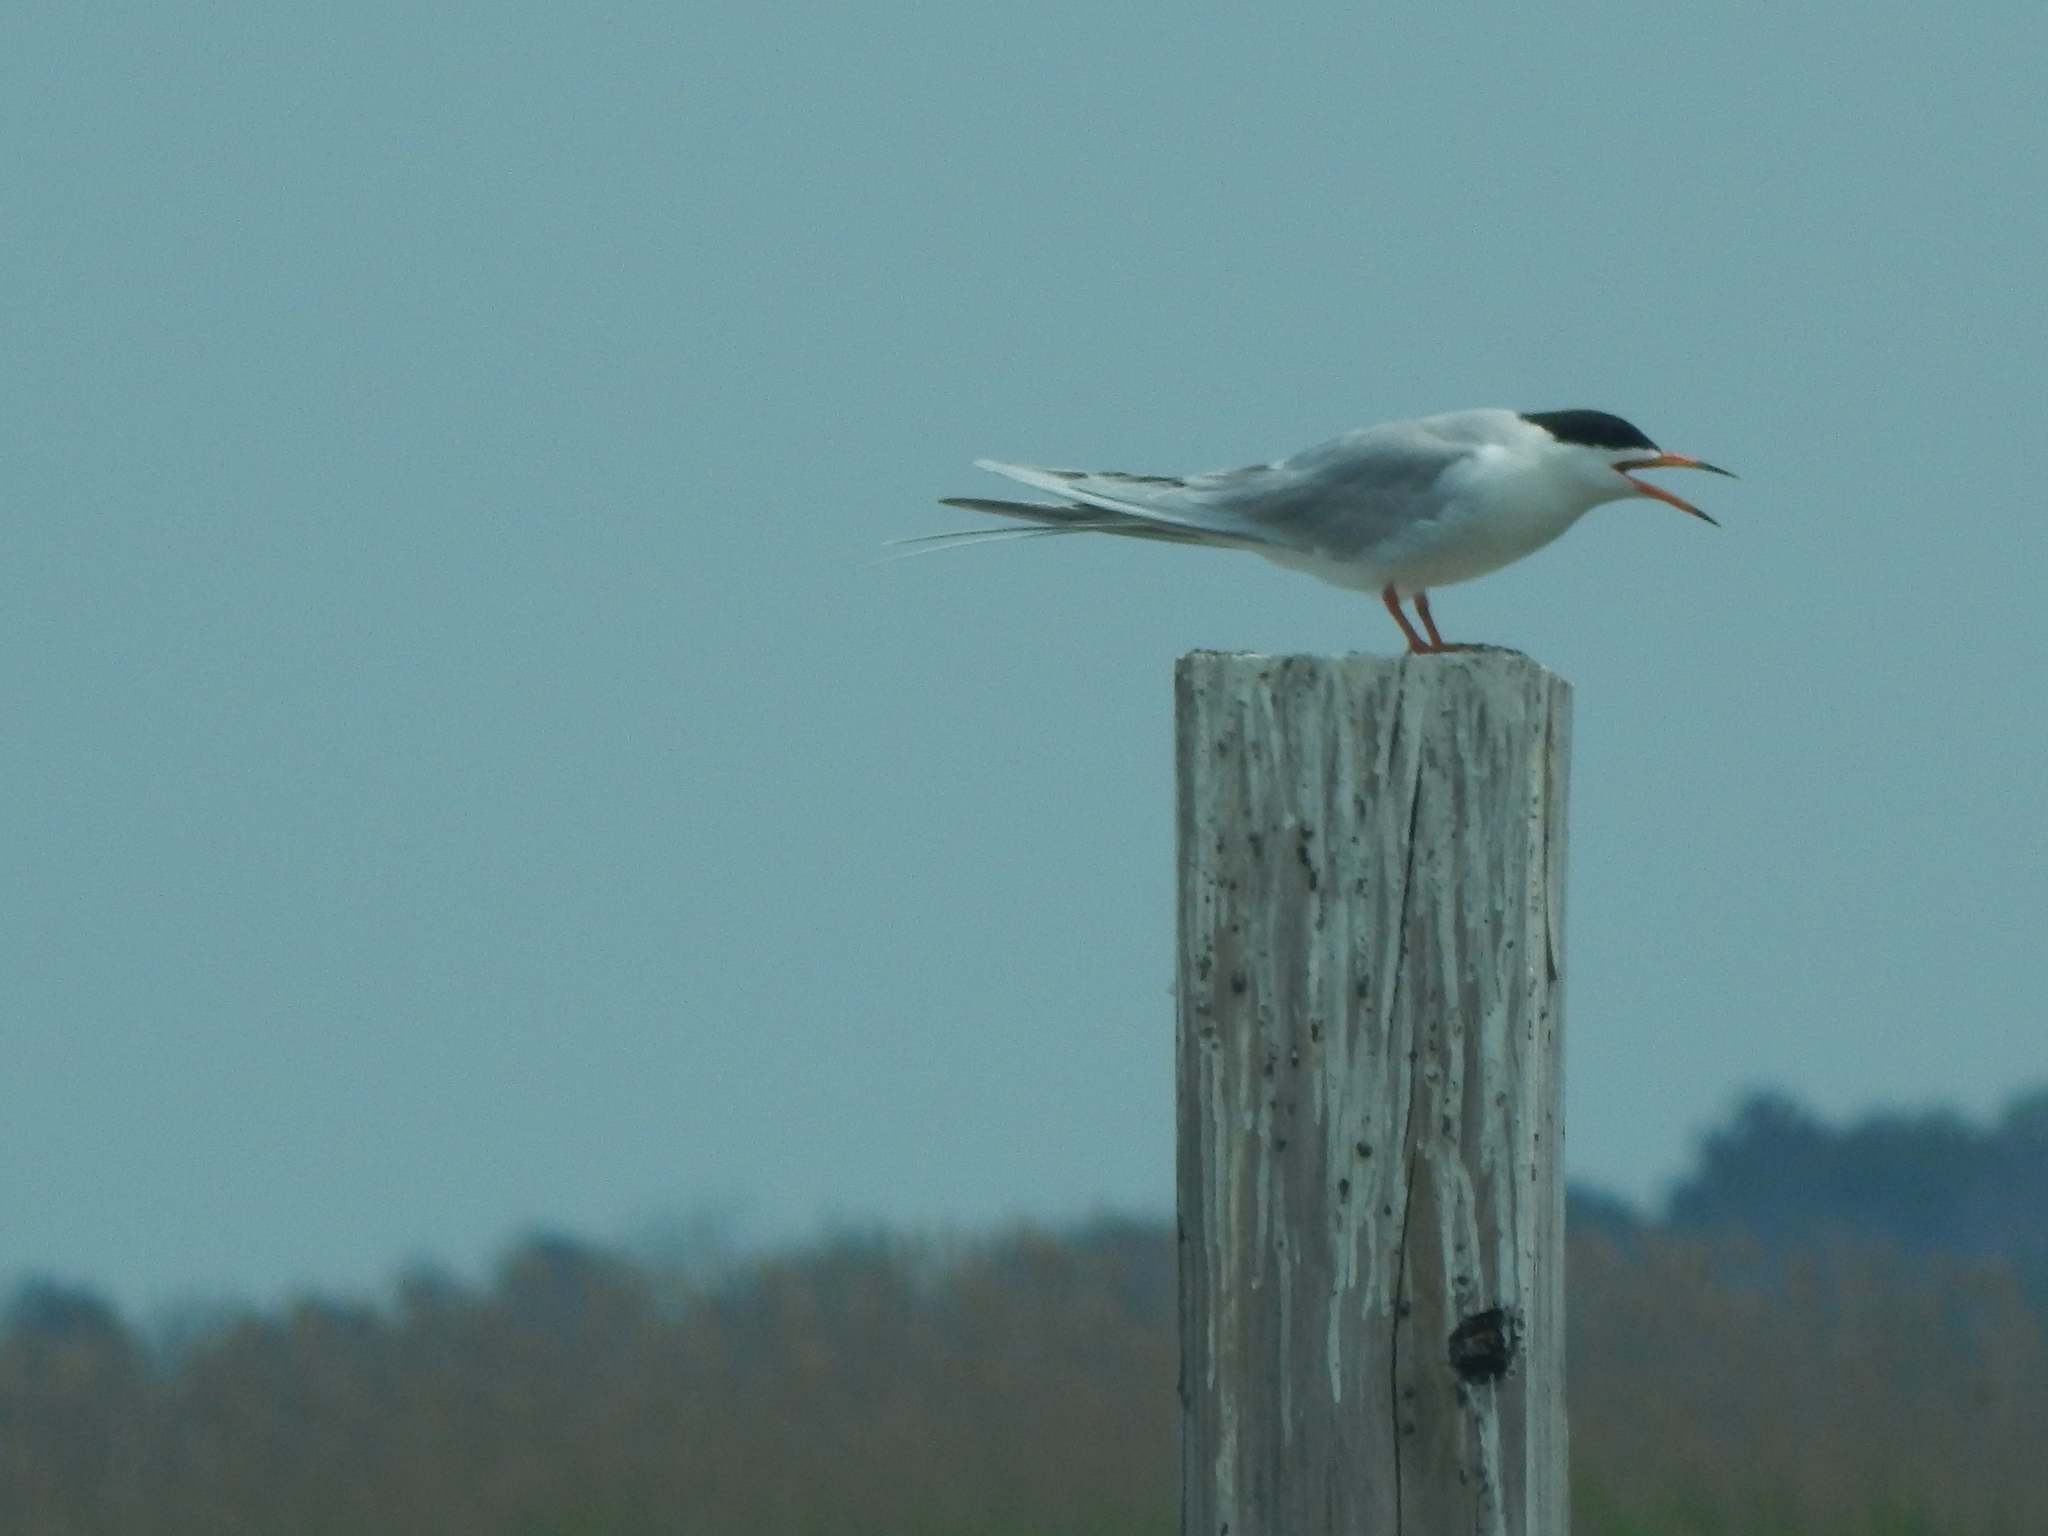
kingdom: Animalia
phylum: Chordata
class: Aves
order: Charadriiformes
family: Laridae
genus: Sterna
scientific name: Sterna forsteri
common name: Forster's tern
